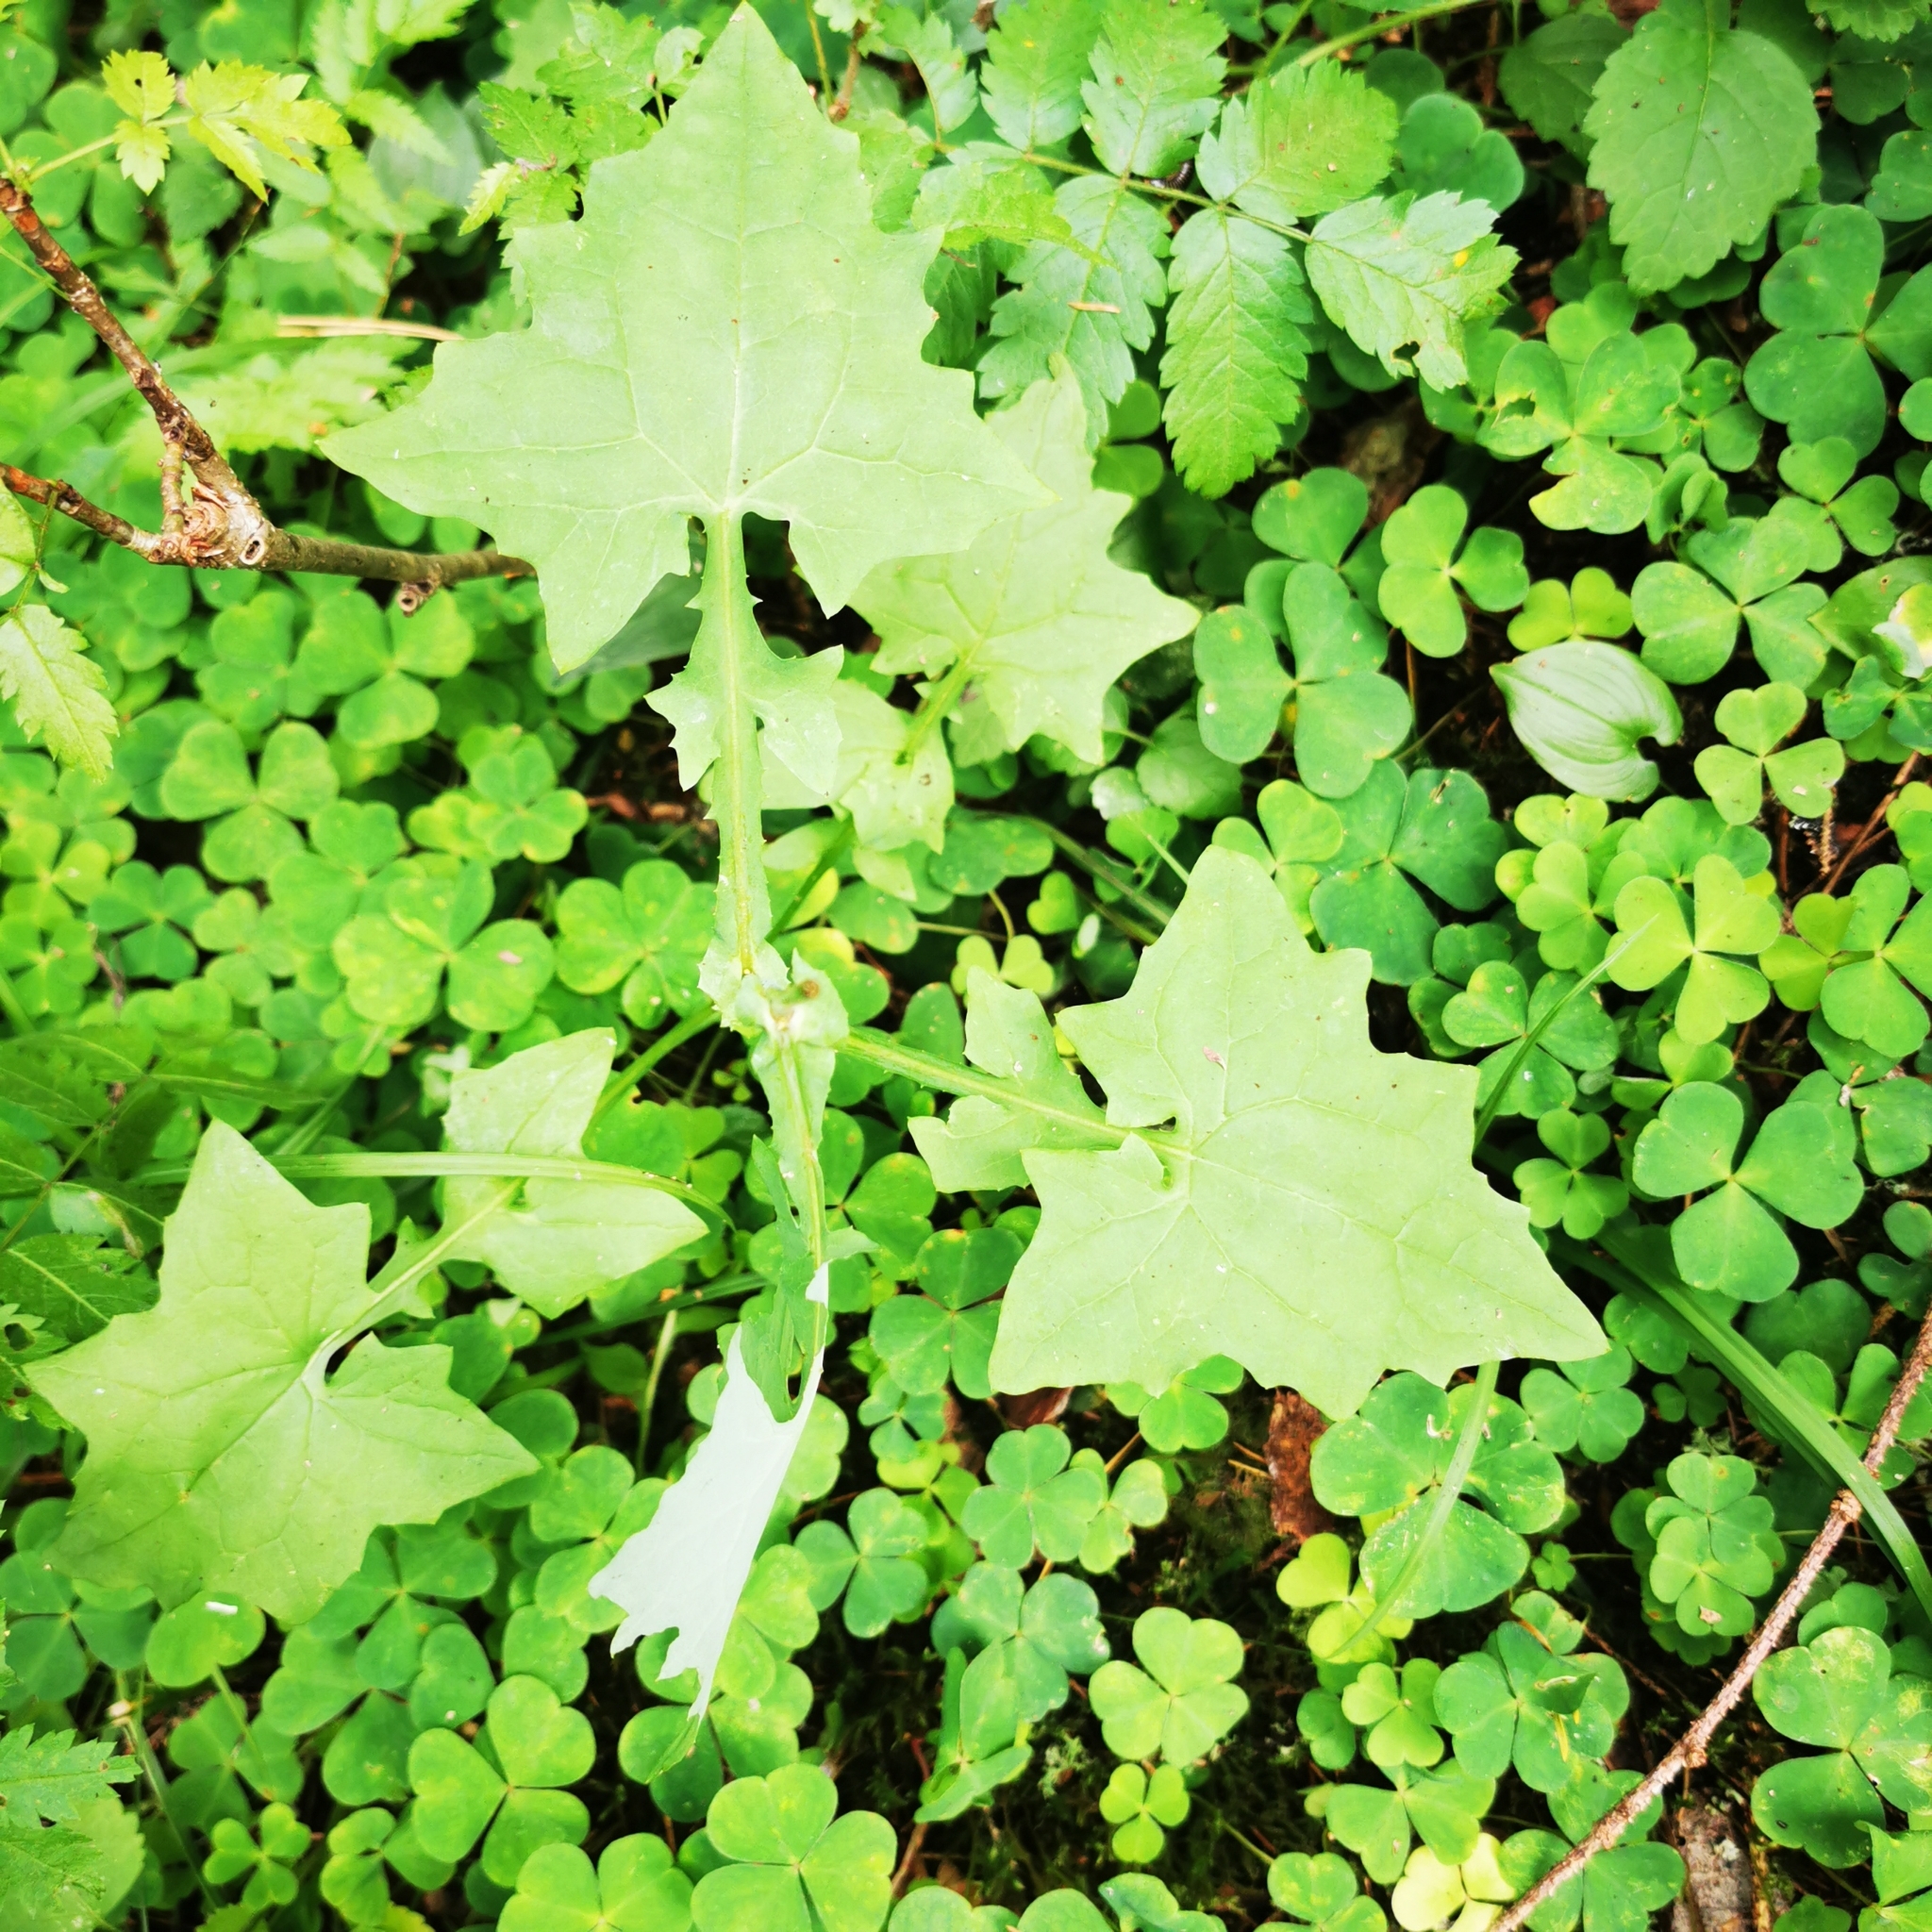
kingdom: Plantae
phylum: Tracheophyta
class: Magnoliopsida
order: Asterales
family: Asteraceae
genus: Mycelis
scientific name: Mycelis muralis
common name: Wall lettuce
